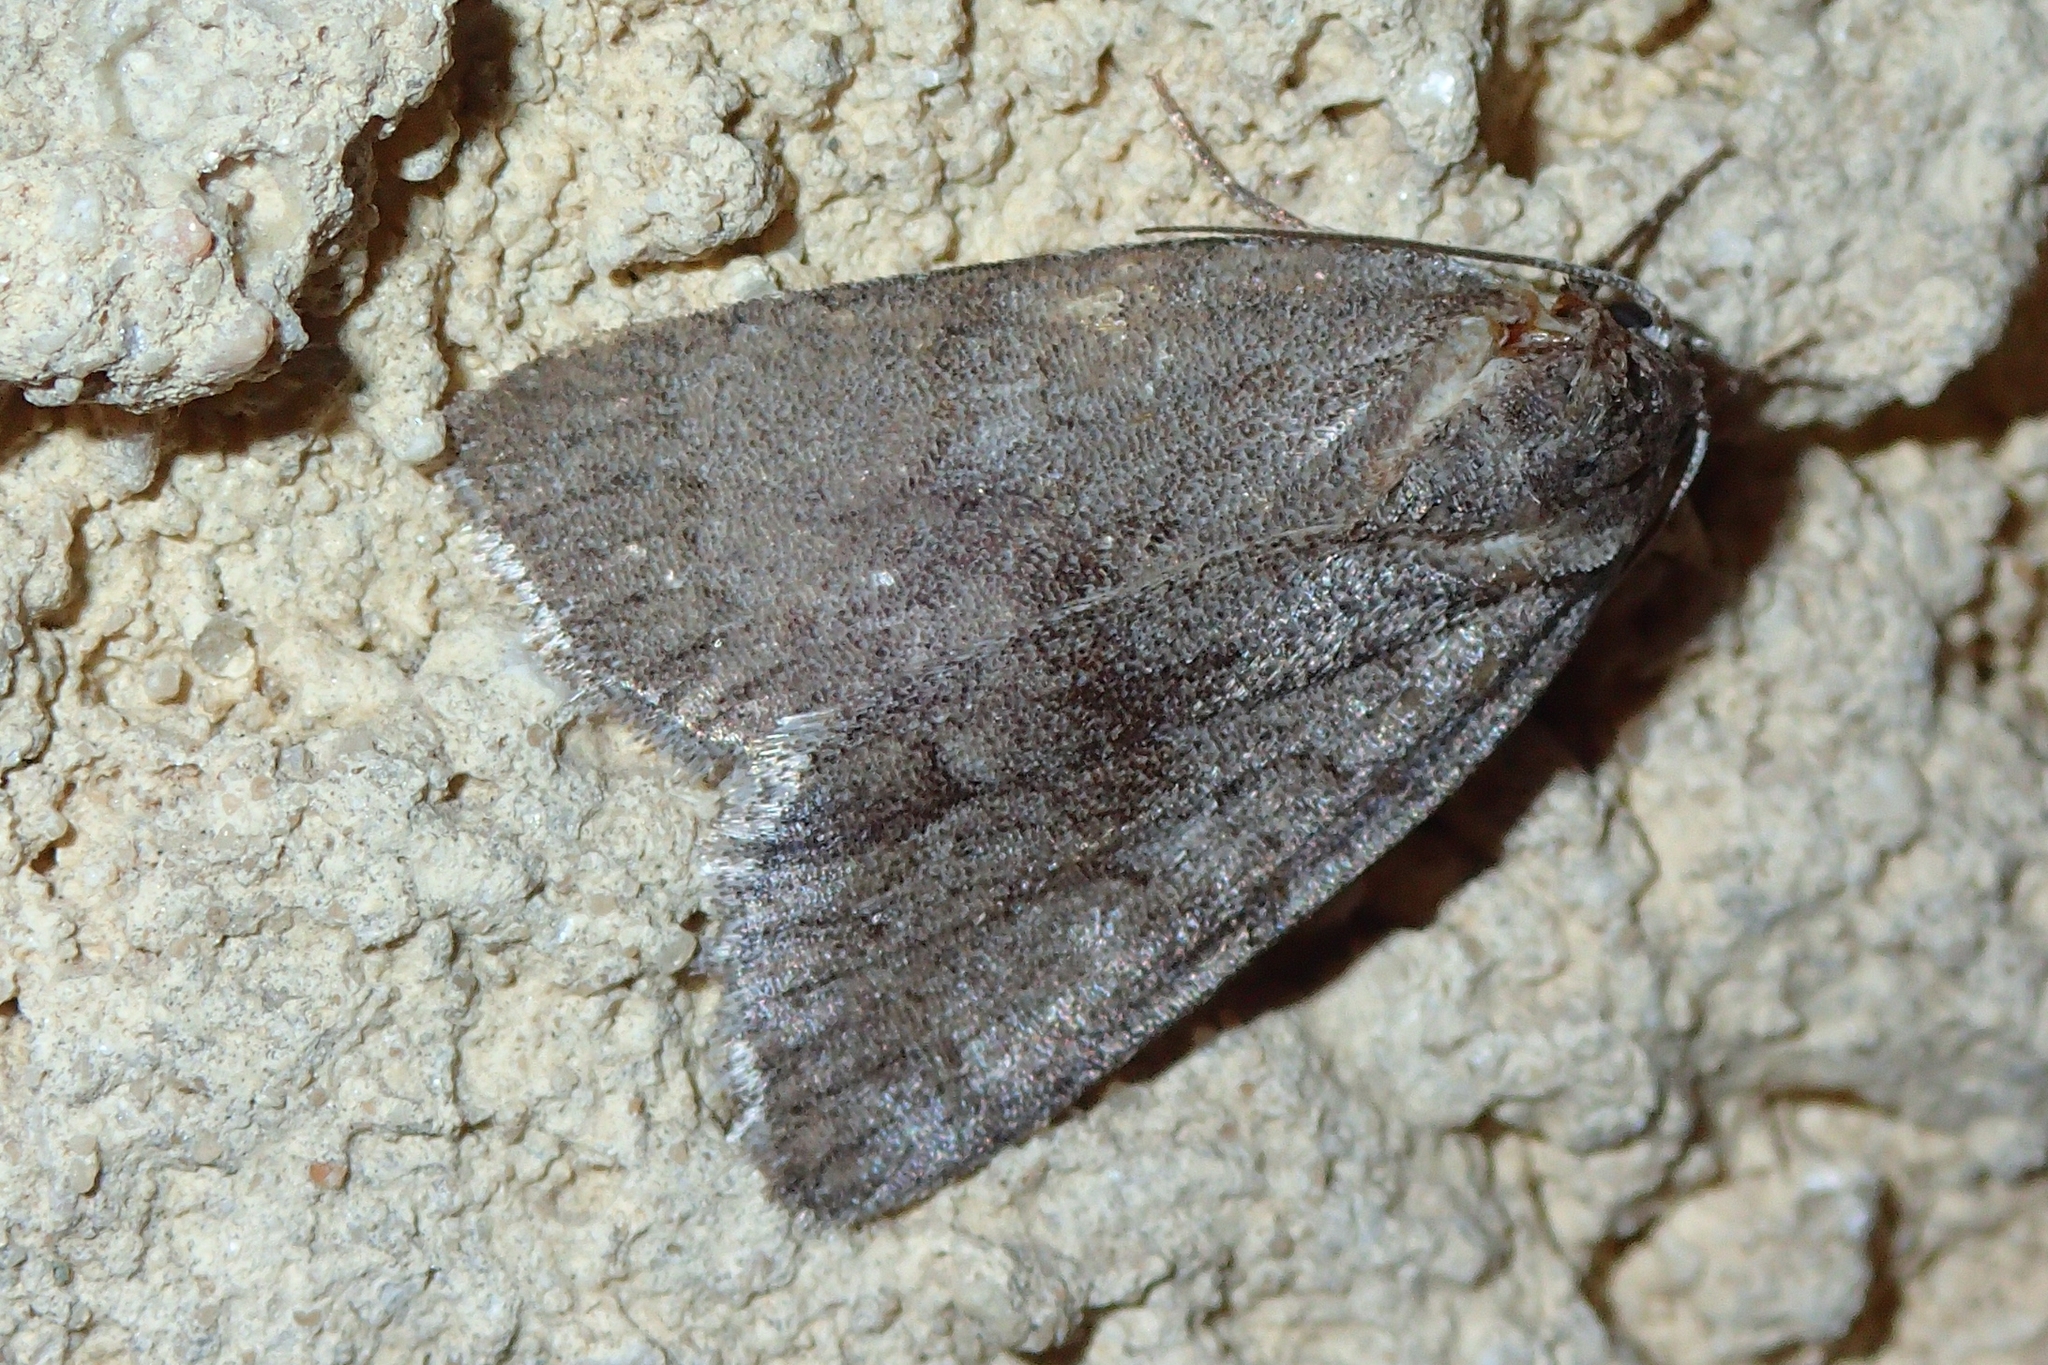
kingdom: Animalia
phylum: Arthropoda
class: Insecta
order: Lepidoptera
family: Noctuidae
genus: Bryonycta
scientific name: Bryonycta pineti
